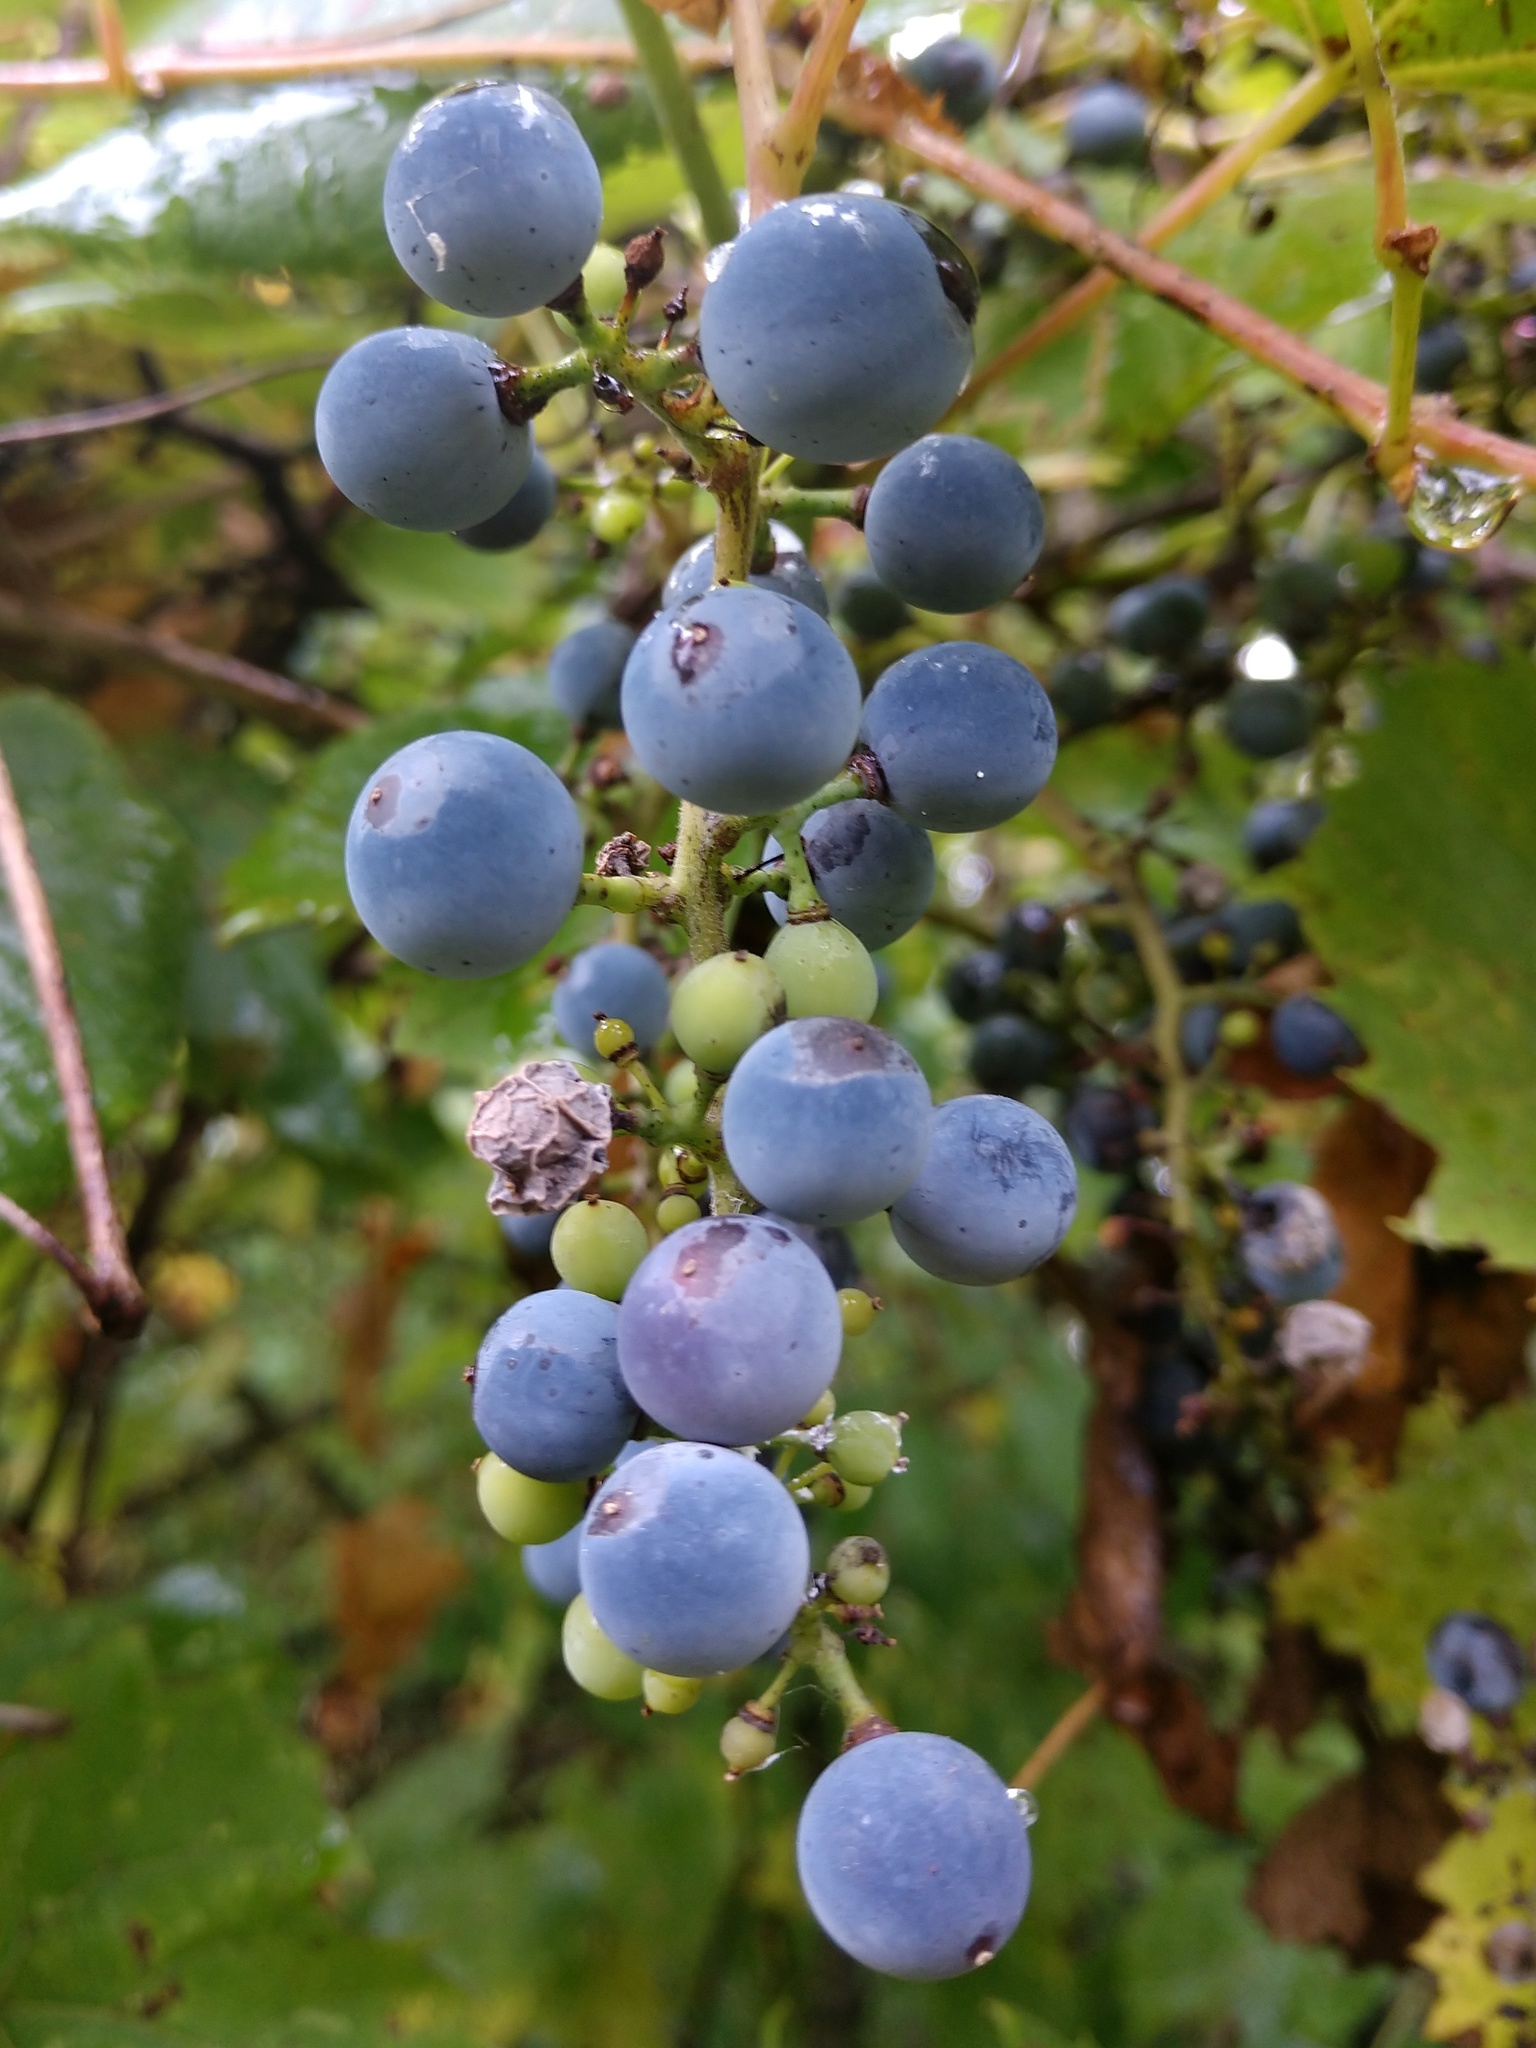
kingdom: Plantae
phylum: Tracheophyta
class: Magnoliopsida
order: Vitales
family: Vitaceae
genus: Vitis
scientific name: Vitis riparia
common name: Frost grape
